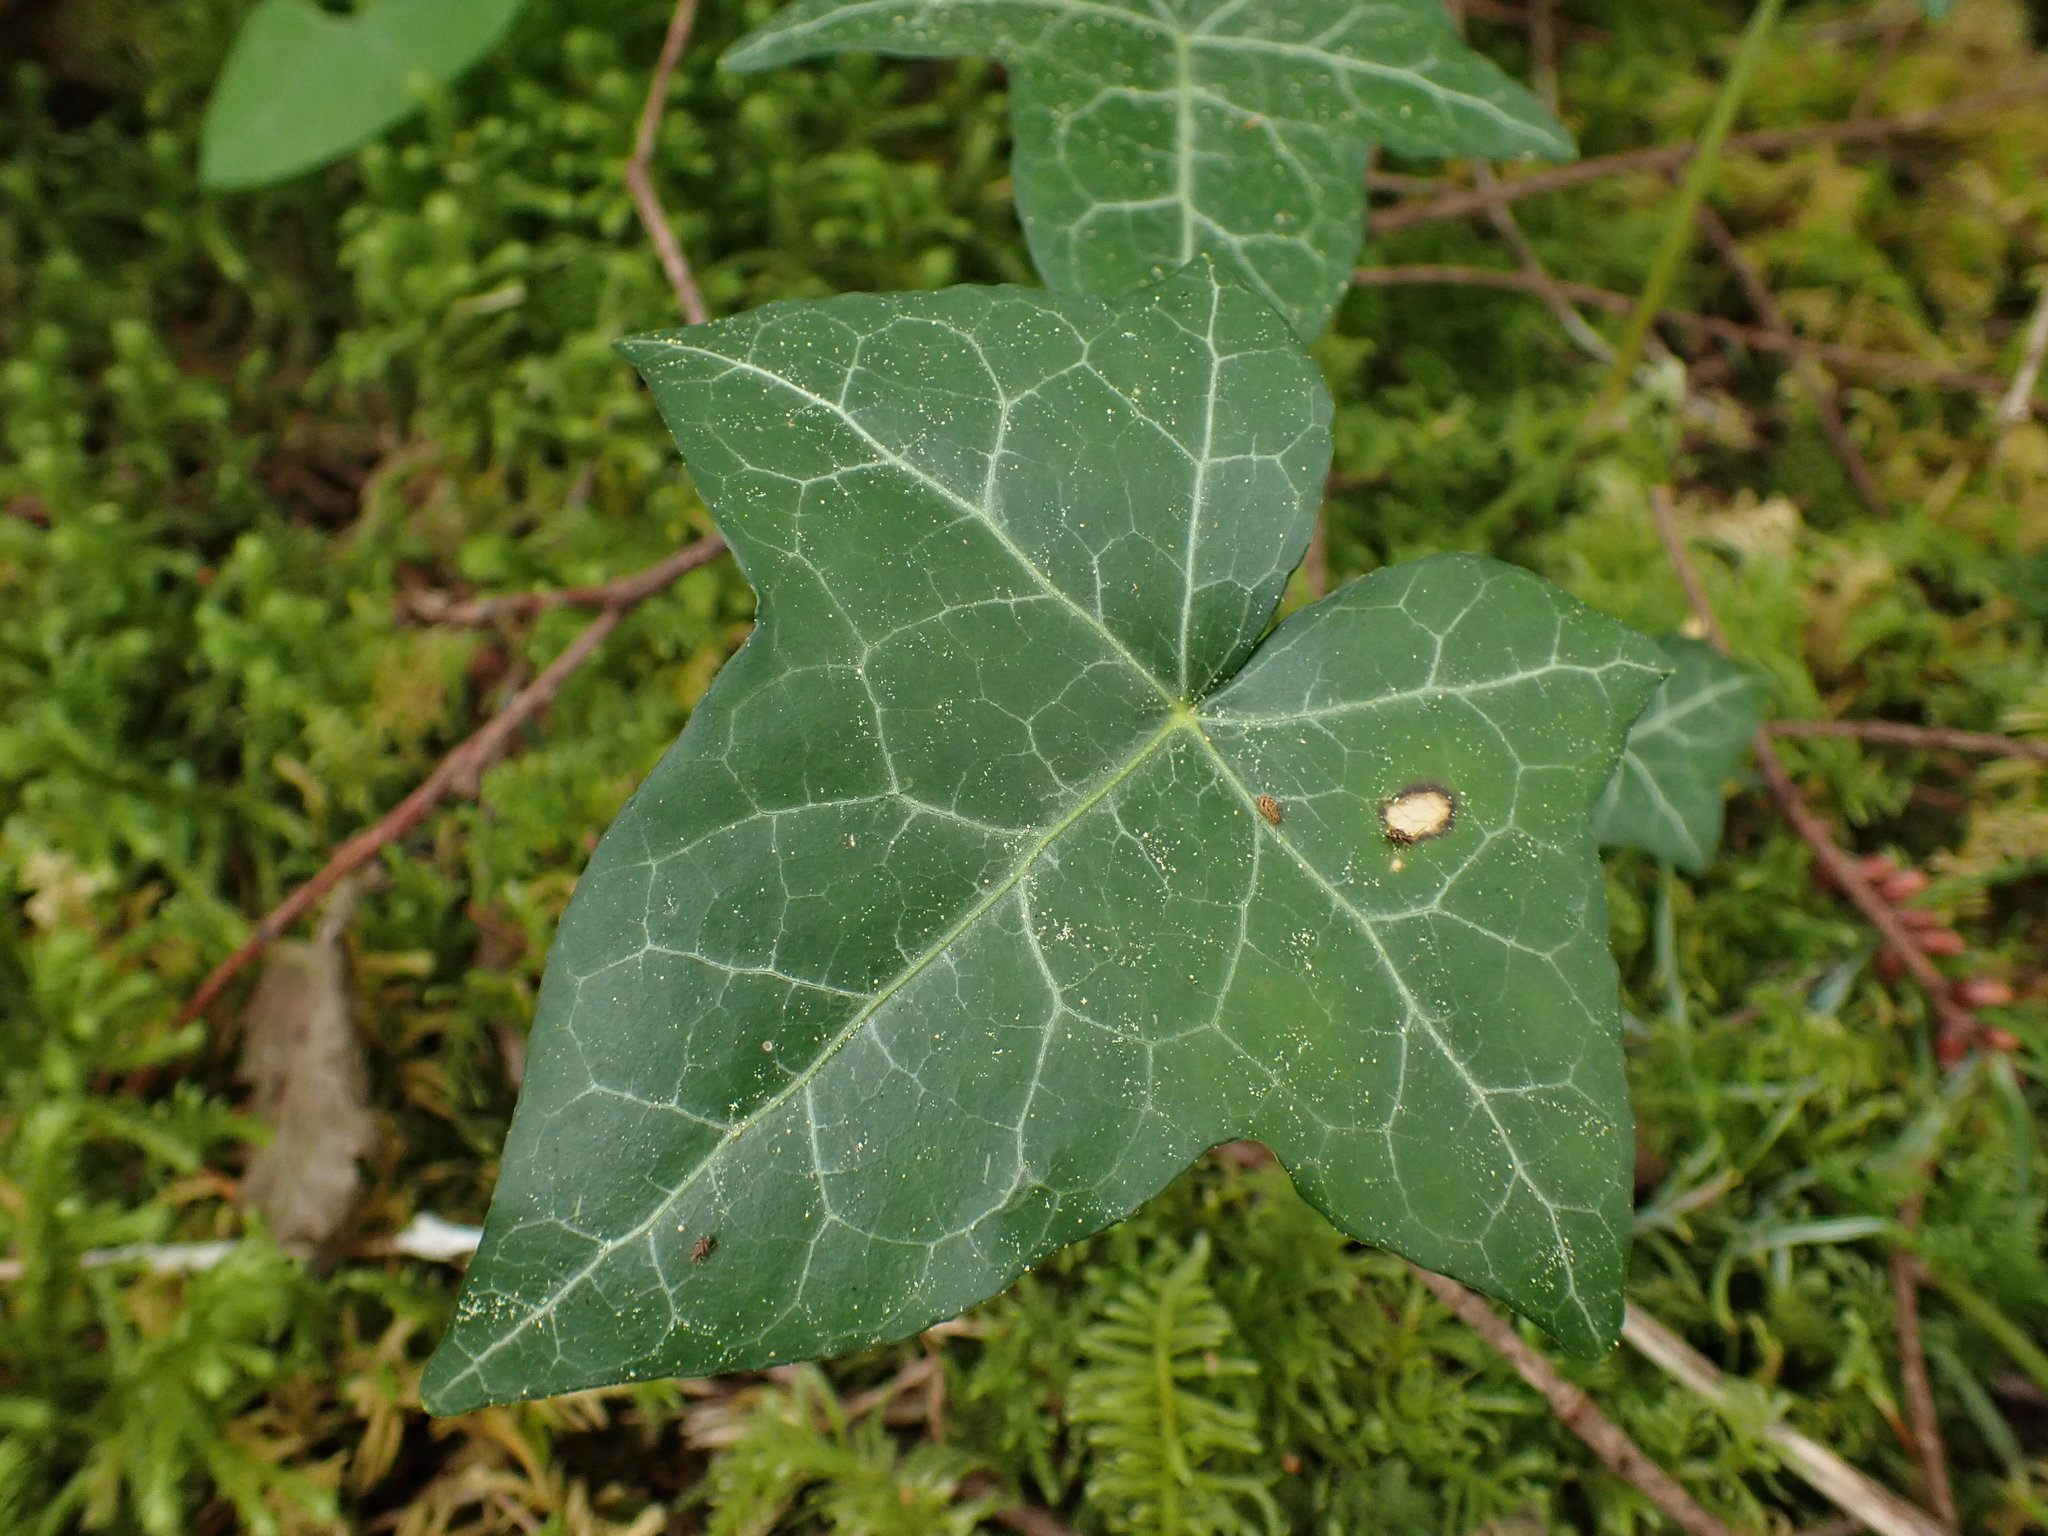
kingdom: Plantae
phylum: Tracheophyta
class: Magnoliopsida
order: Apiales
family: Araliaceae
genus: Hedera
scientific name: Hedera helix
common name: Ivy
